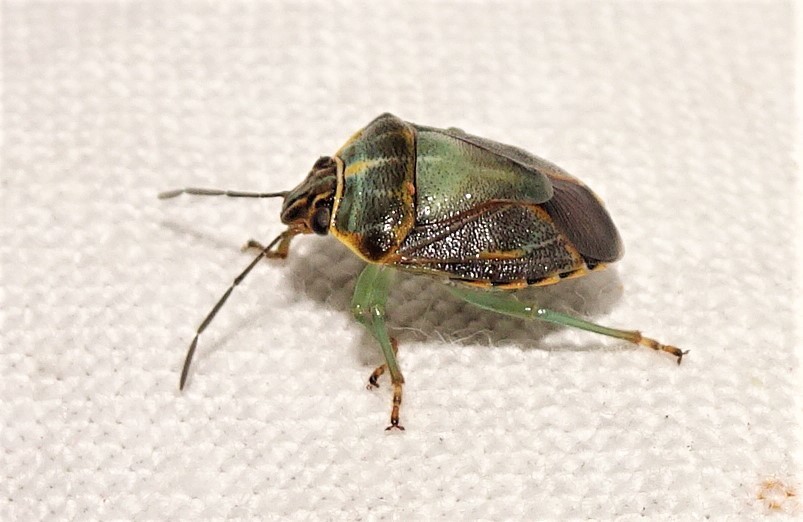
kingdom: Animalia
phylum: Arthropoda
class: Insecta
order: Hemiptera
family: Pentatomidae
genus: Antestiopsis
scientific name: Antestiopsis
